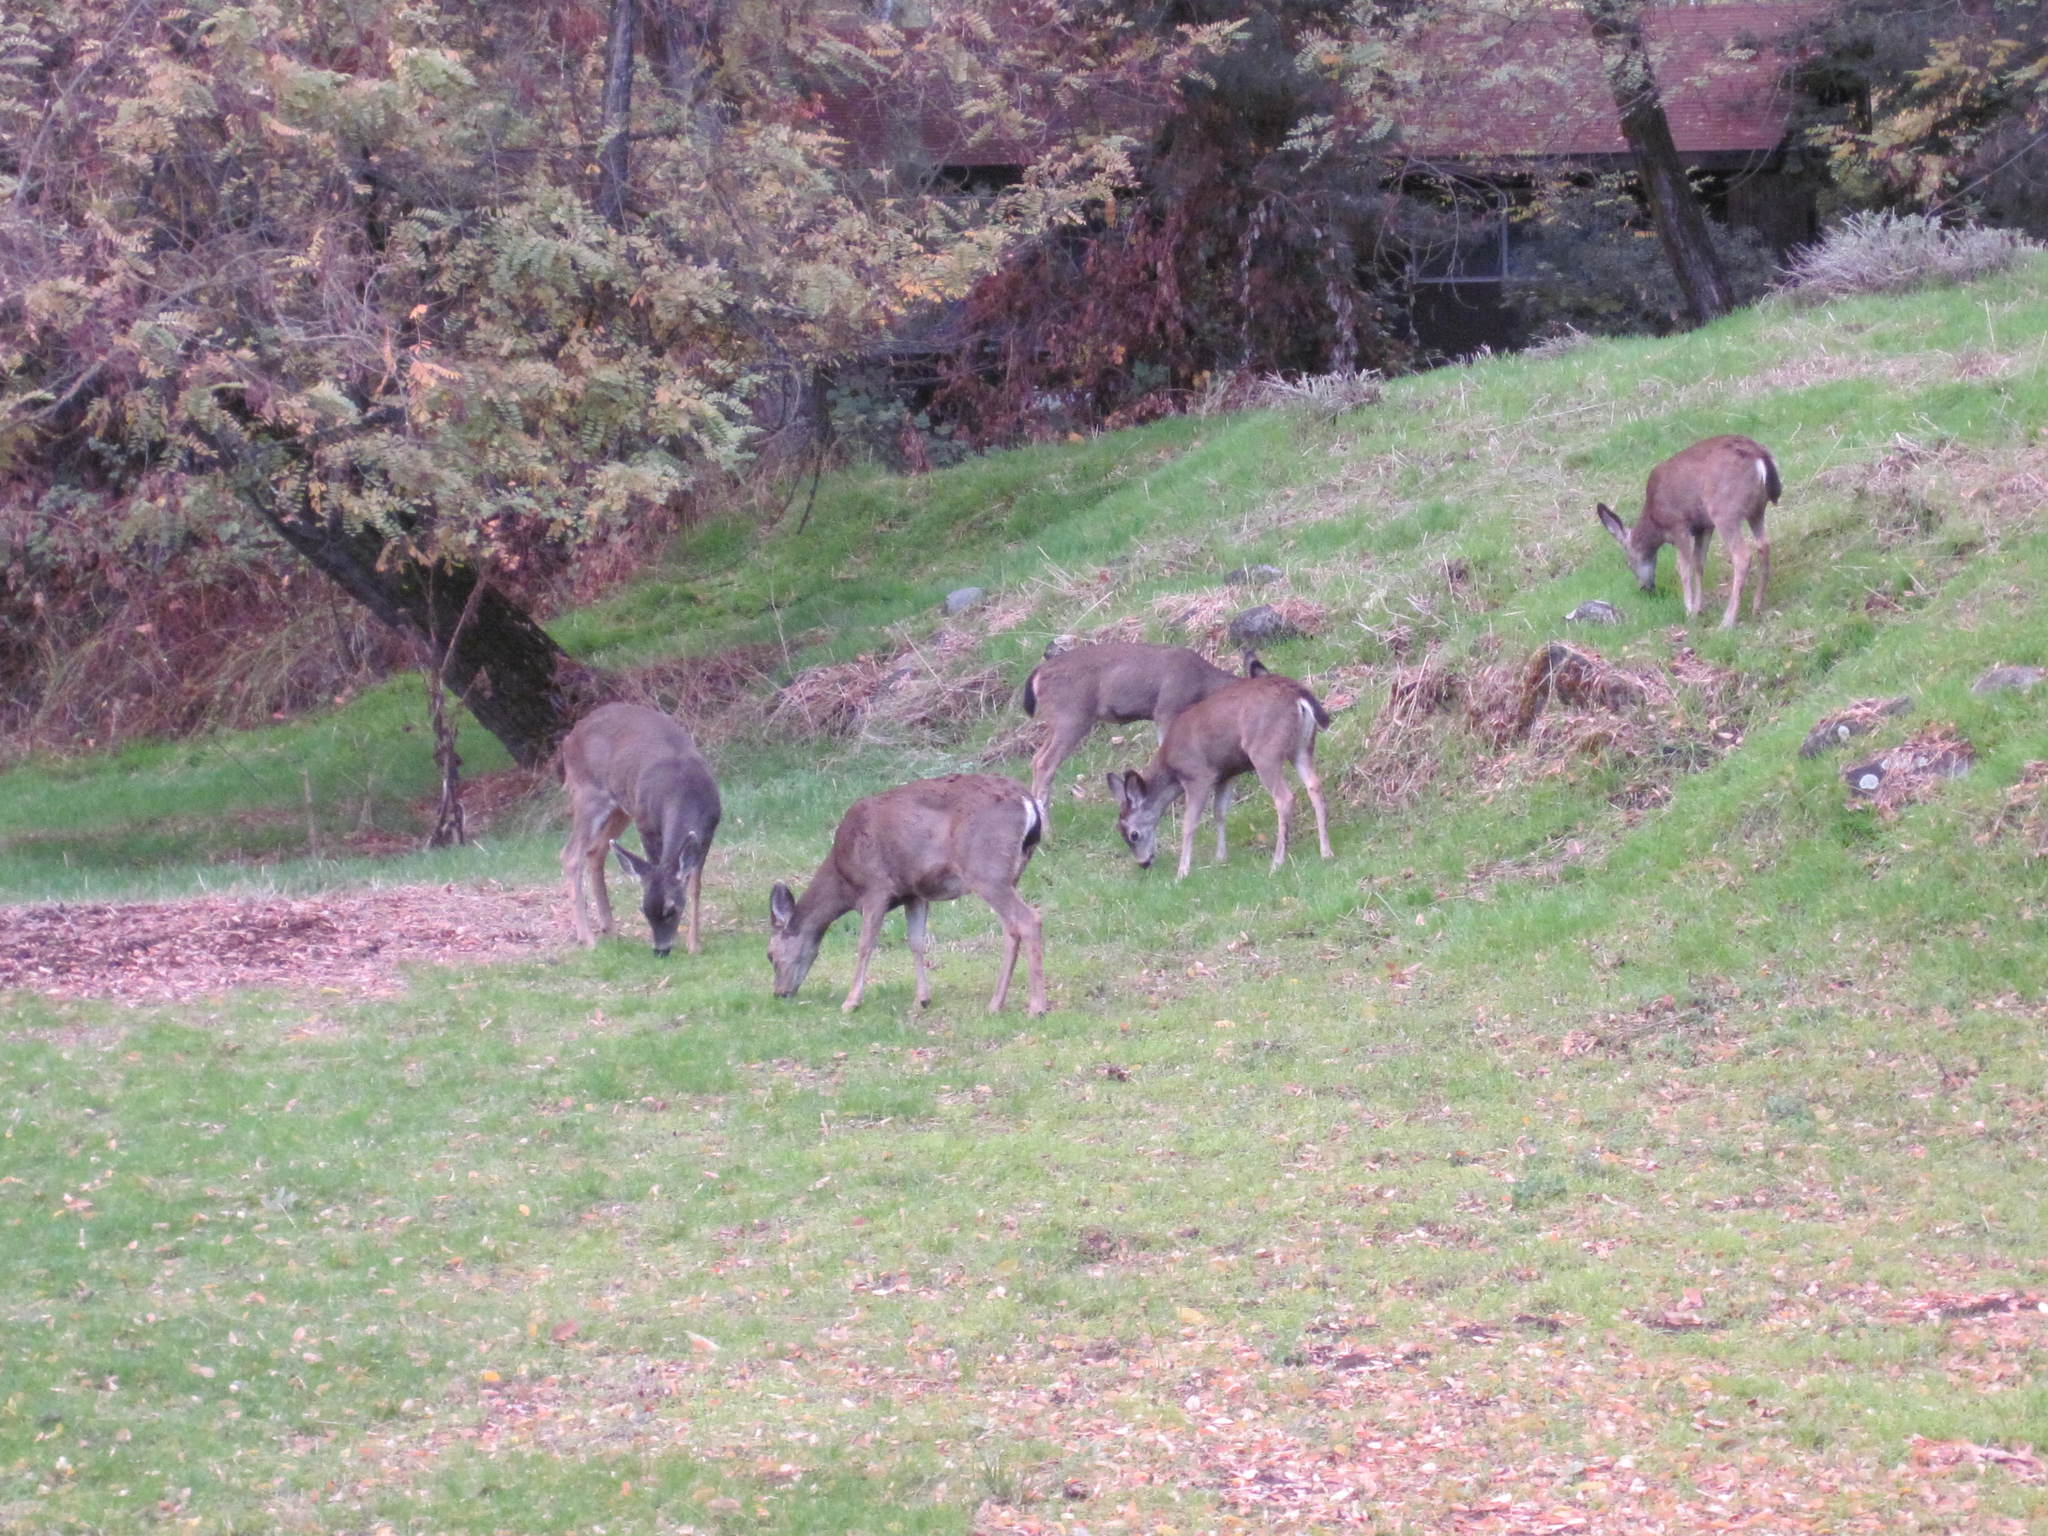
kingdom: Animalia
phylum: Chordata
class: Mammalia
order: Artiodactyla
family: Cervidae
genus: Odocoileus
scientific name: Odocoileus hemionus
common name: Mule deer
